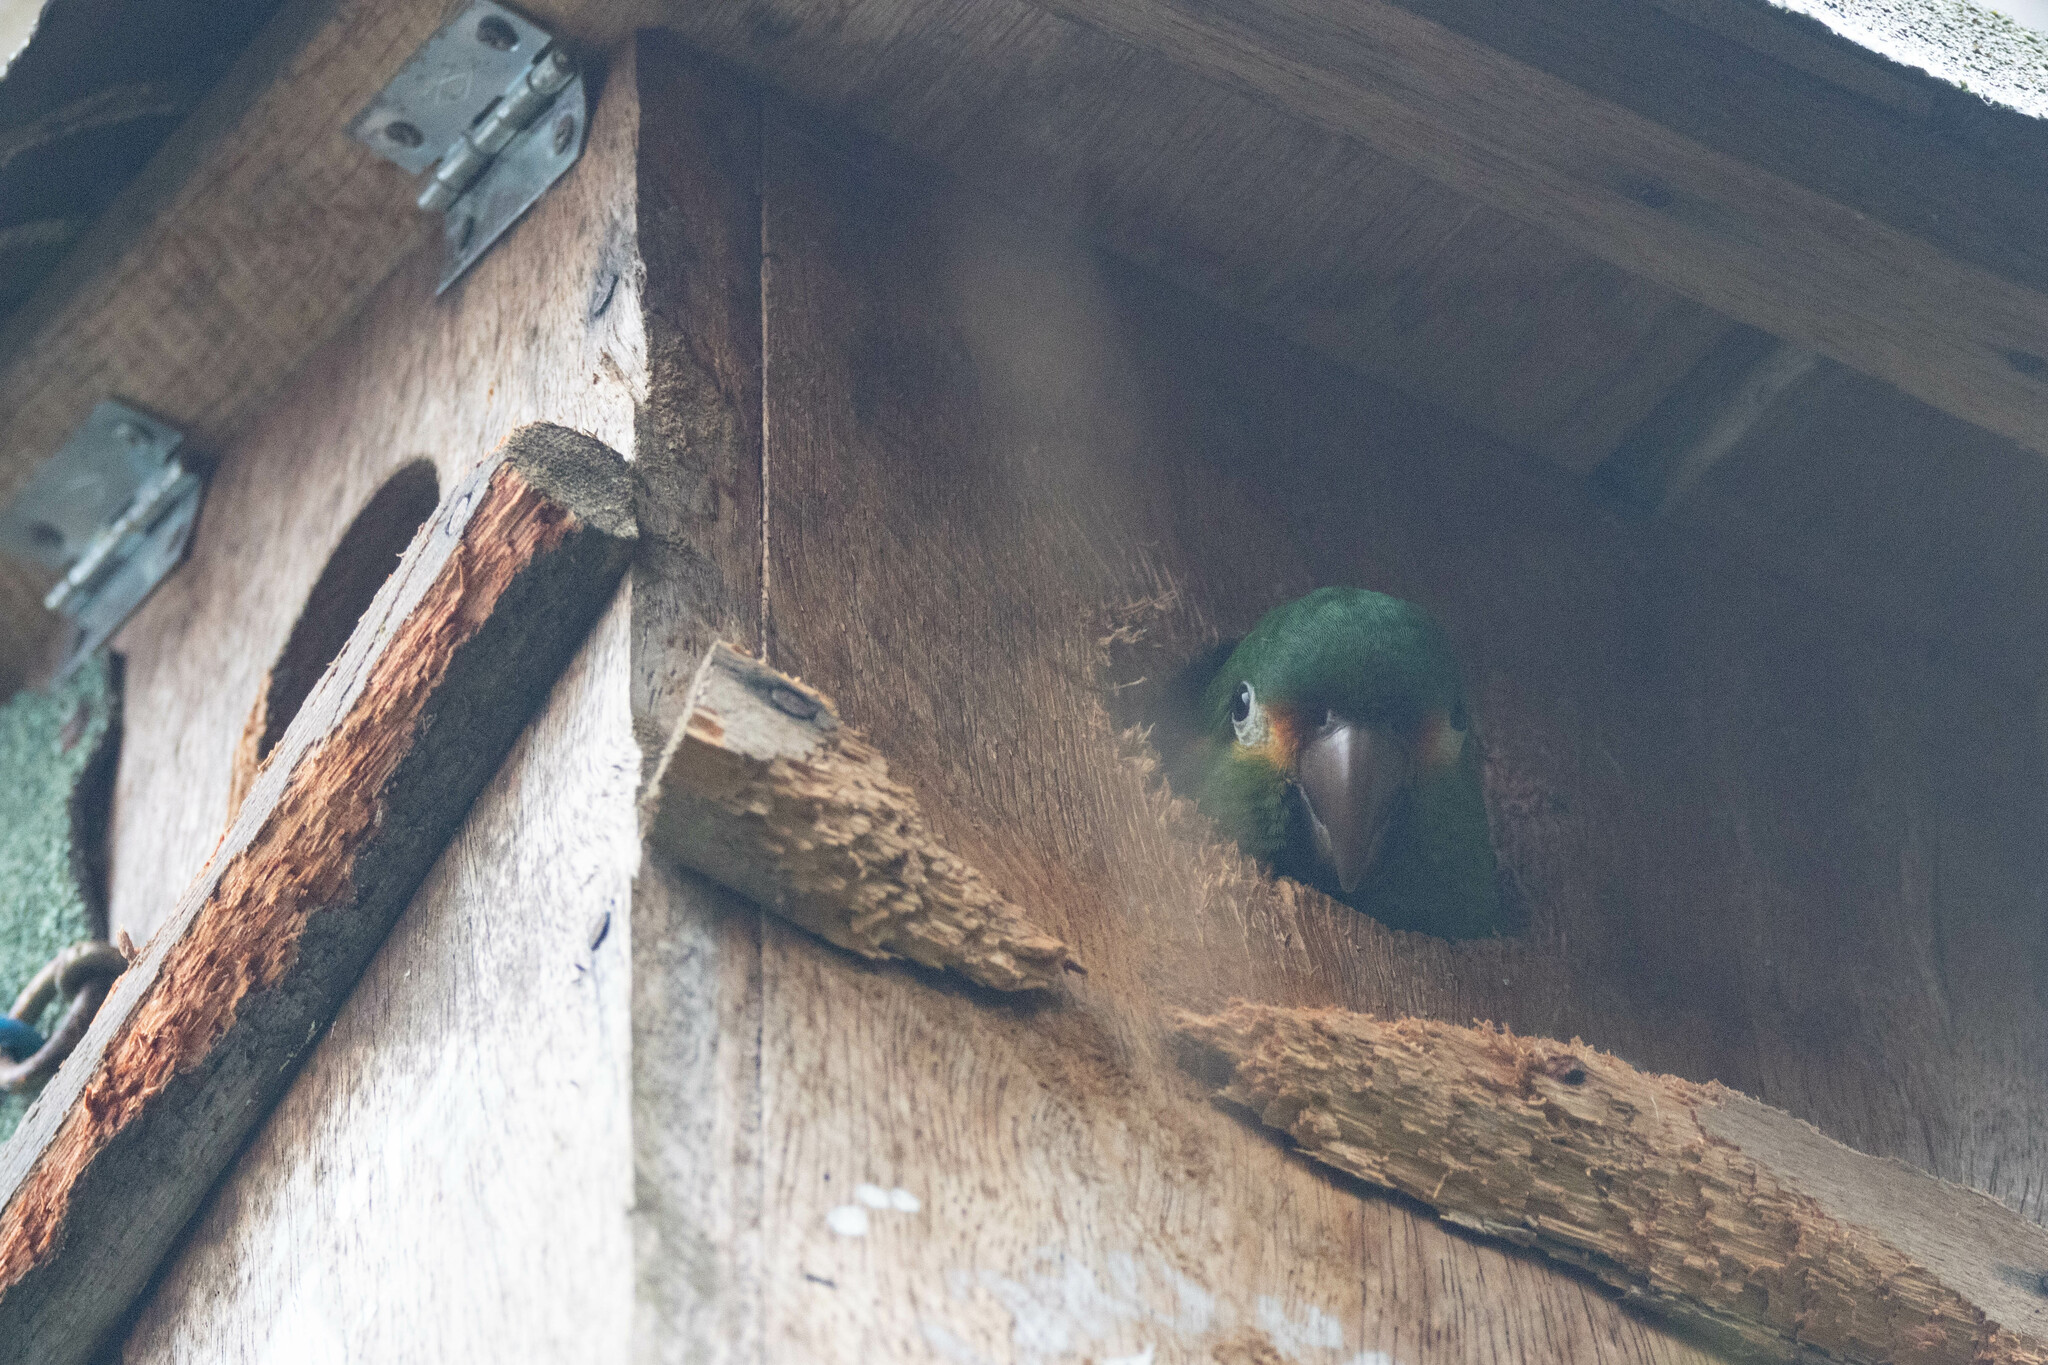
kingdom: Animalia
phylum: Chordata
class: Aves
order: Psittaciformes
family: Psittacidae
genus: Leptosittaca
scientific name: Leptosittaca branickii
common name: Golden-plumed parakeet
